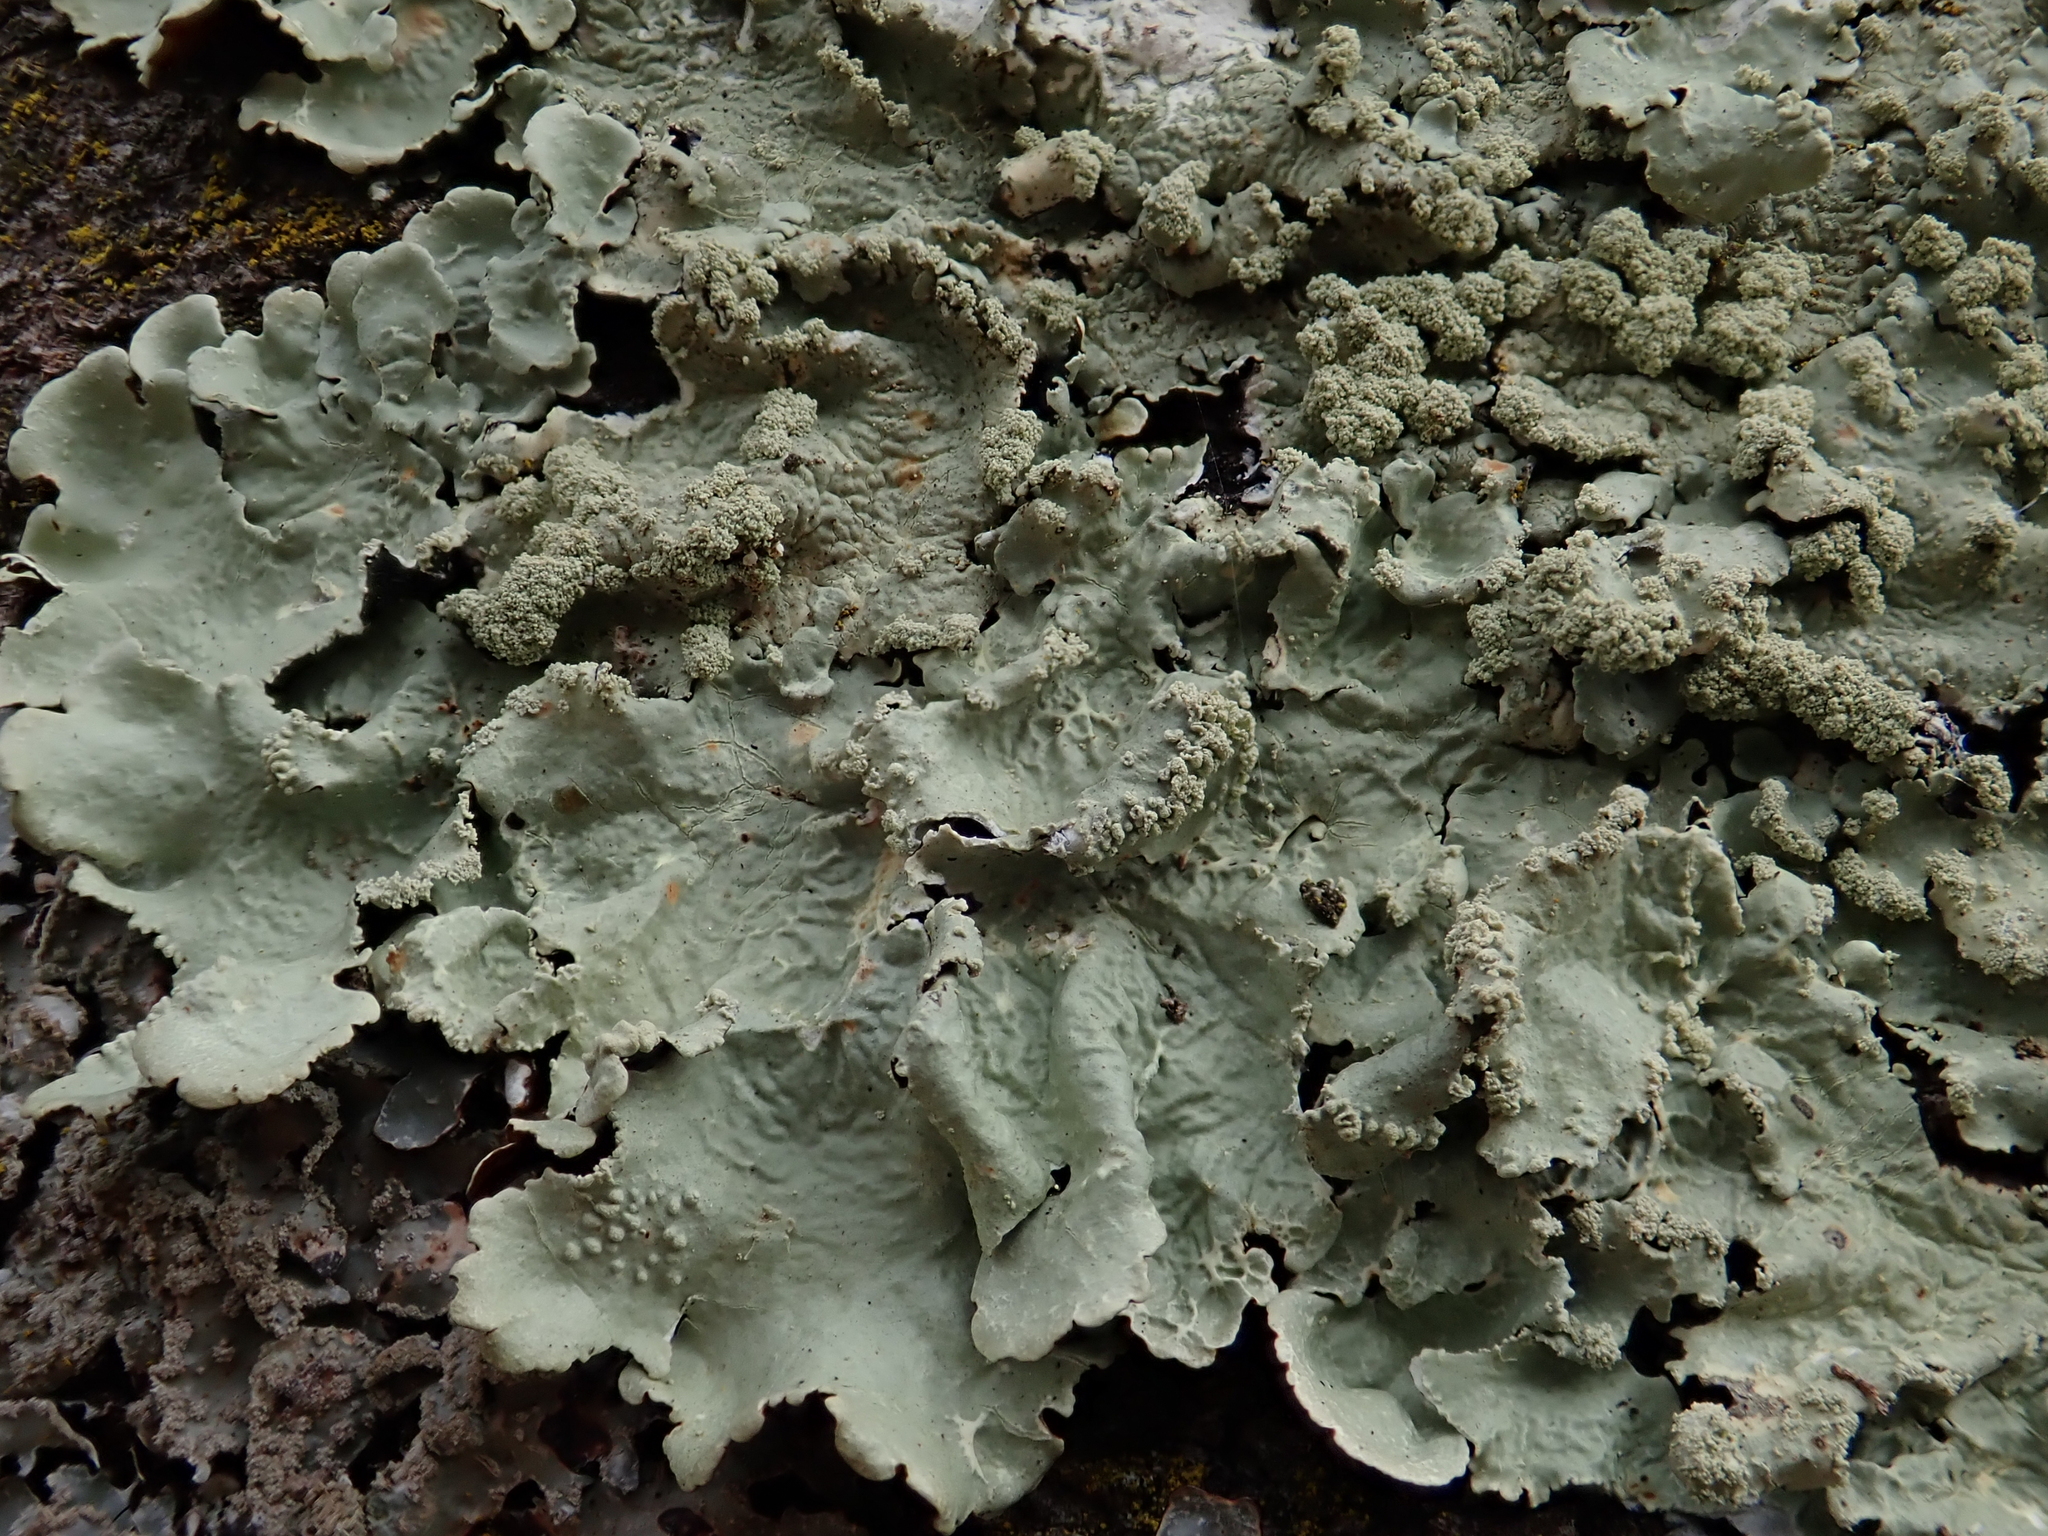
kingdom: Fungi
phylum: Ascomycota
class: Lecanoromycetes
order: Lecanorales
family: Parmeliaceae
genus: Flavoparmelia
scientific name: Flavoparmelia caperata
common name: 40-mile per hour lichen
